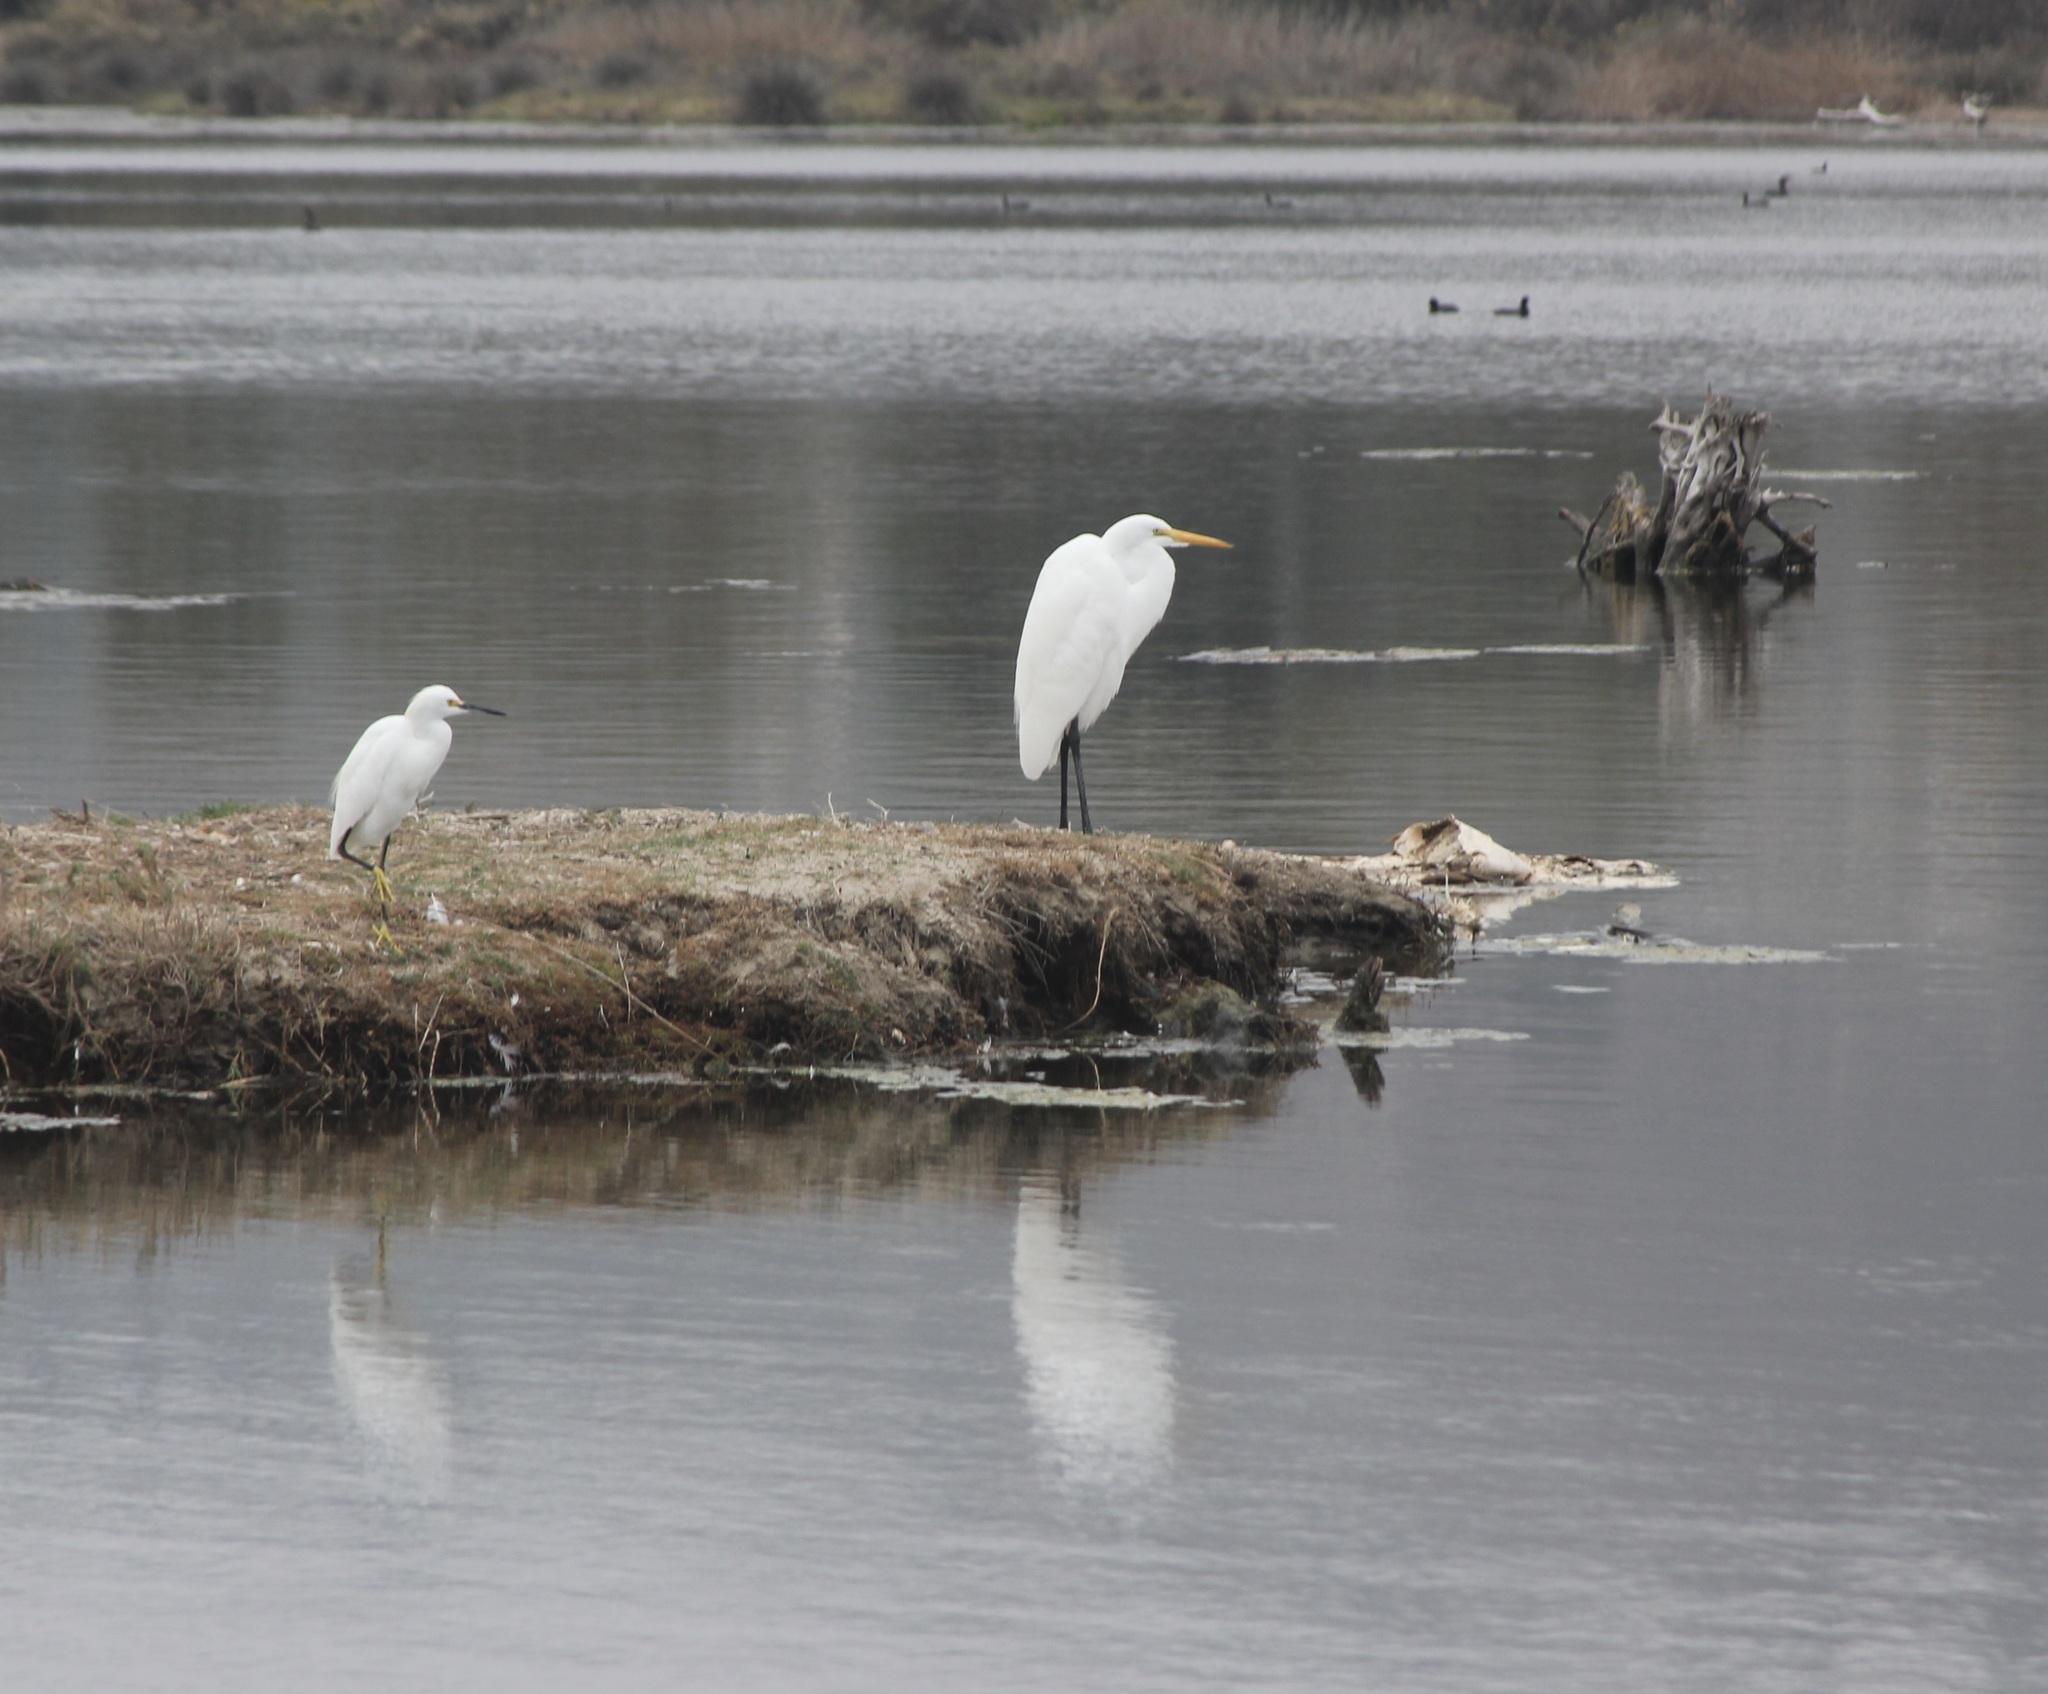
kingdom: Animalia
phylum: Chordata
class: Aves
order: Pelecaniformes
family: Ardeidae
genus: Ardea
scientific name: Ardea alba
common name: Great egret
